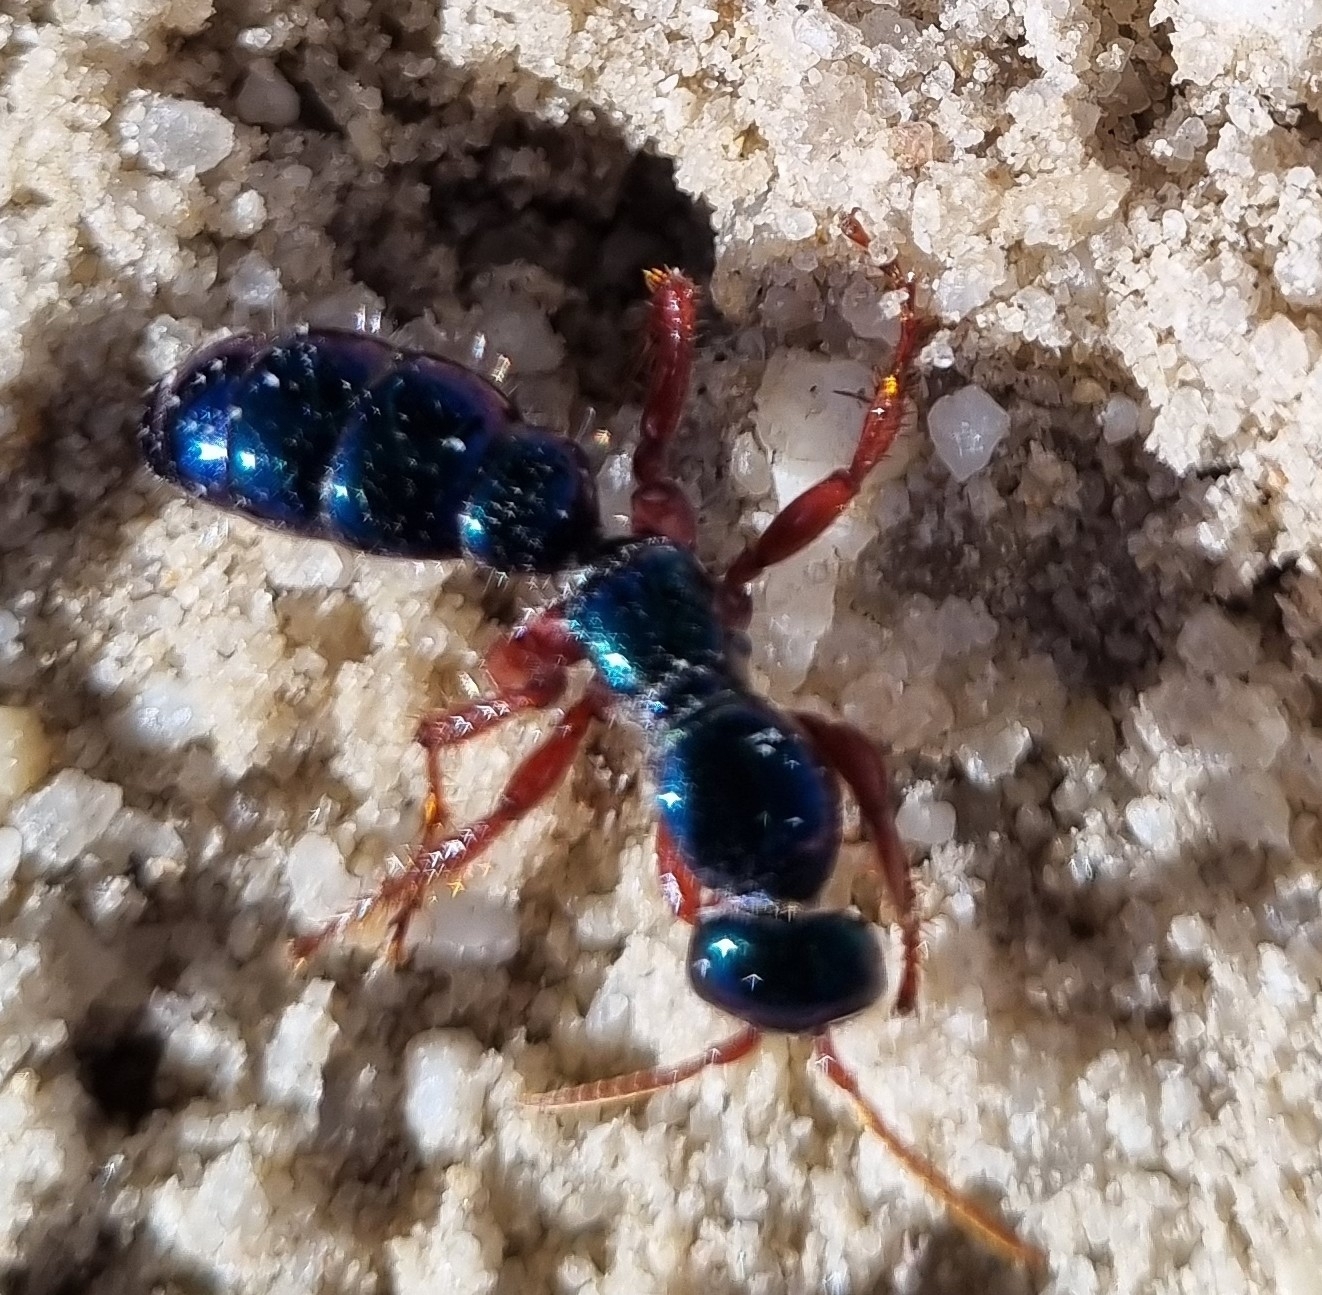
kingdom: Animalia
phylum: Arthropoda
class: Insecta
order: Hymenoptera
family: Tiphiidae
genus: Diamma
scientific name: Diamma
